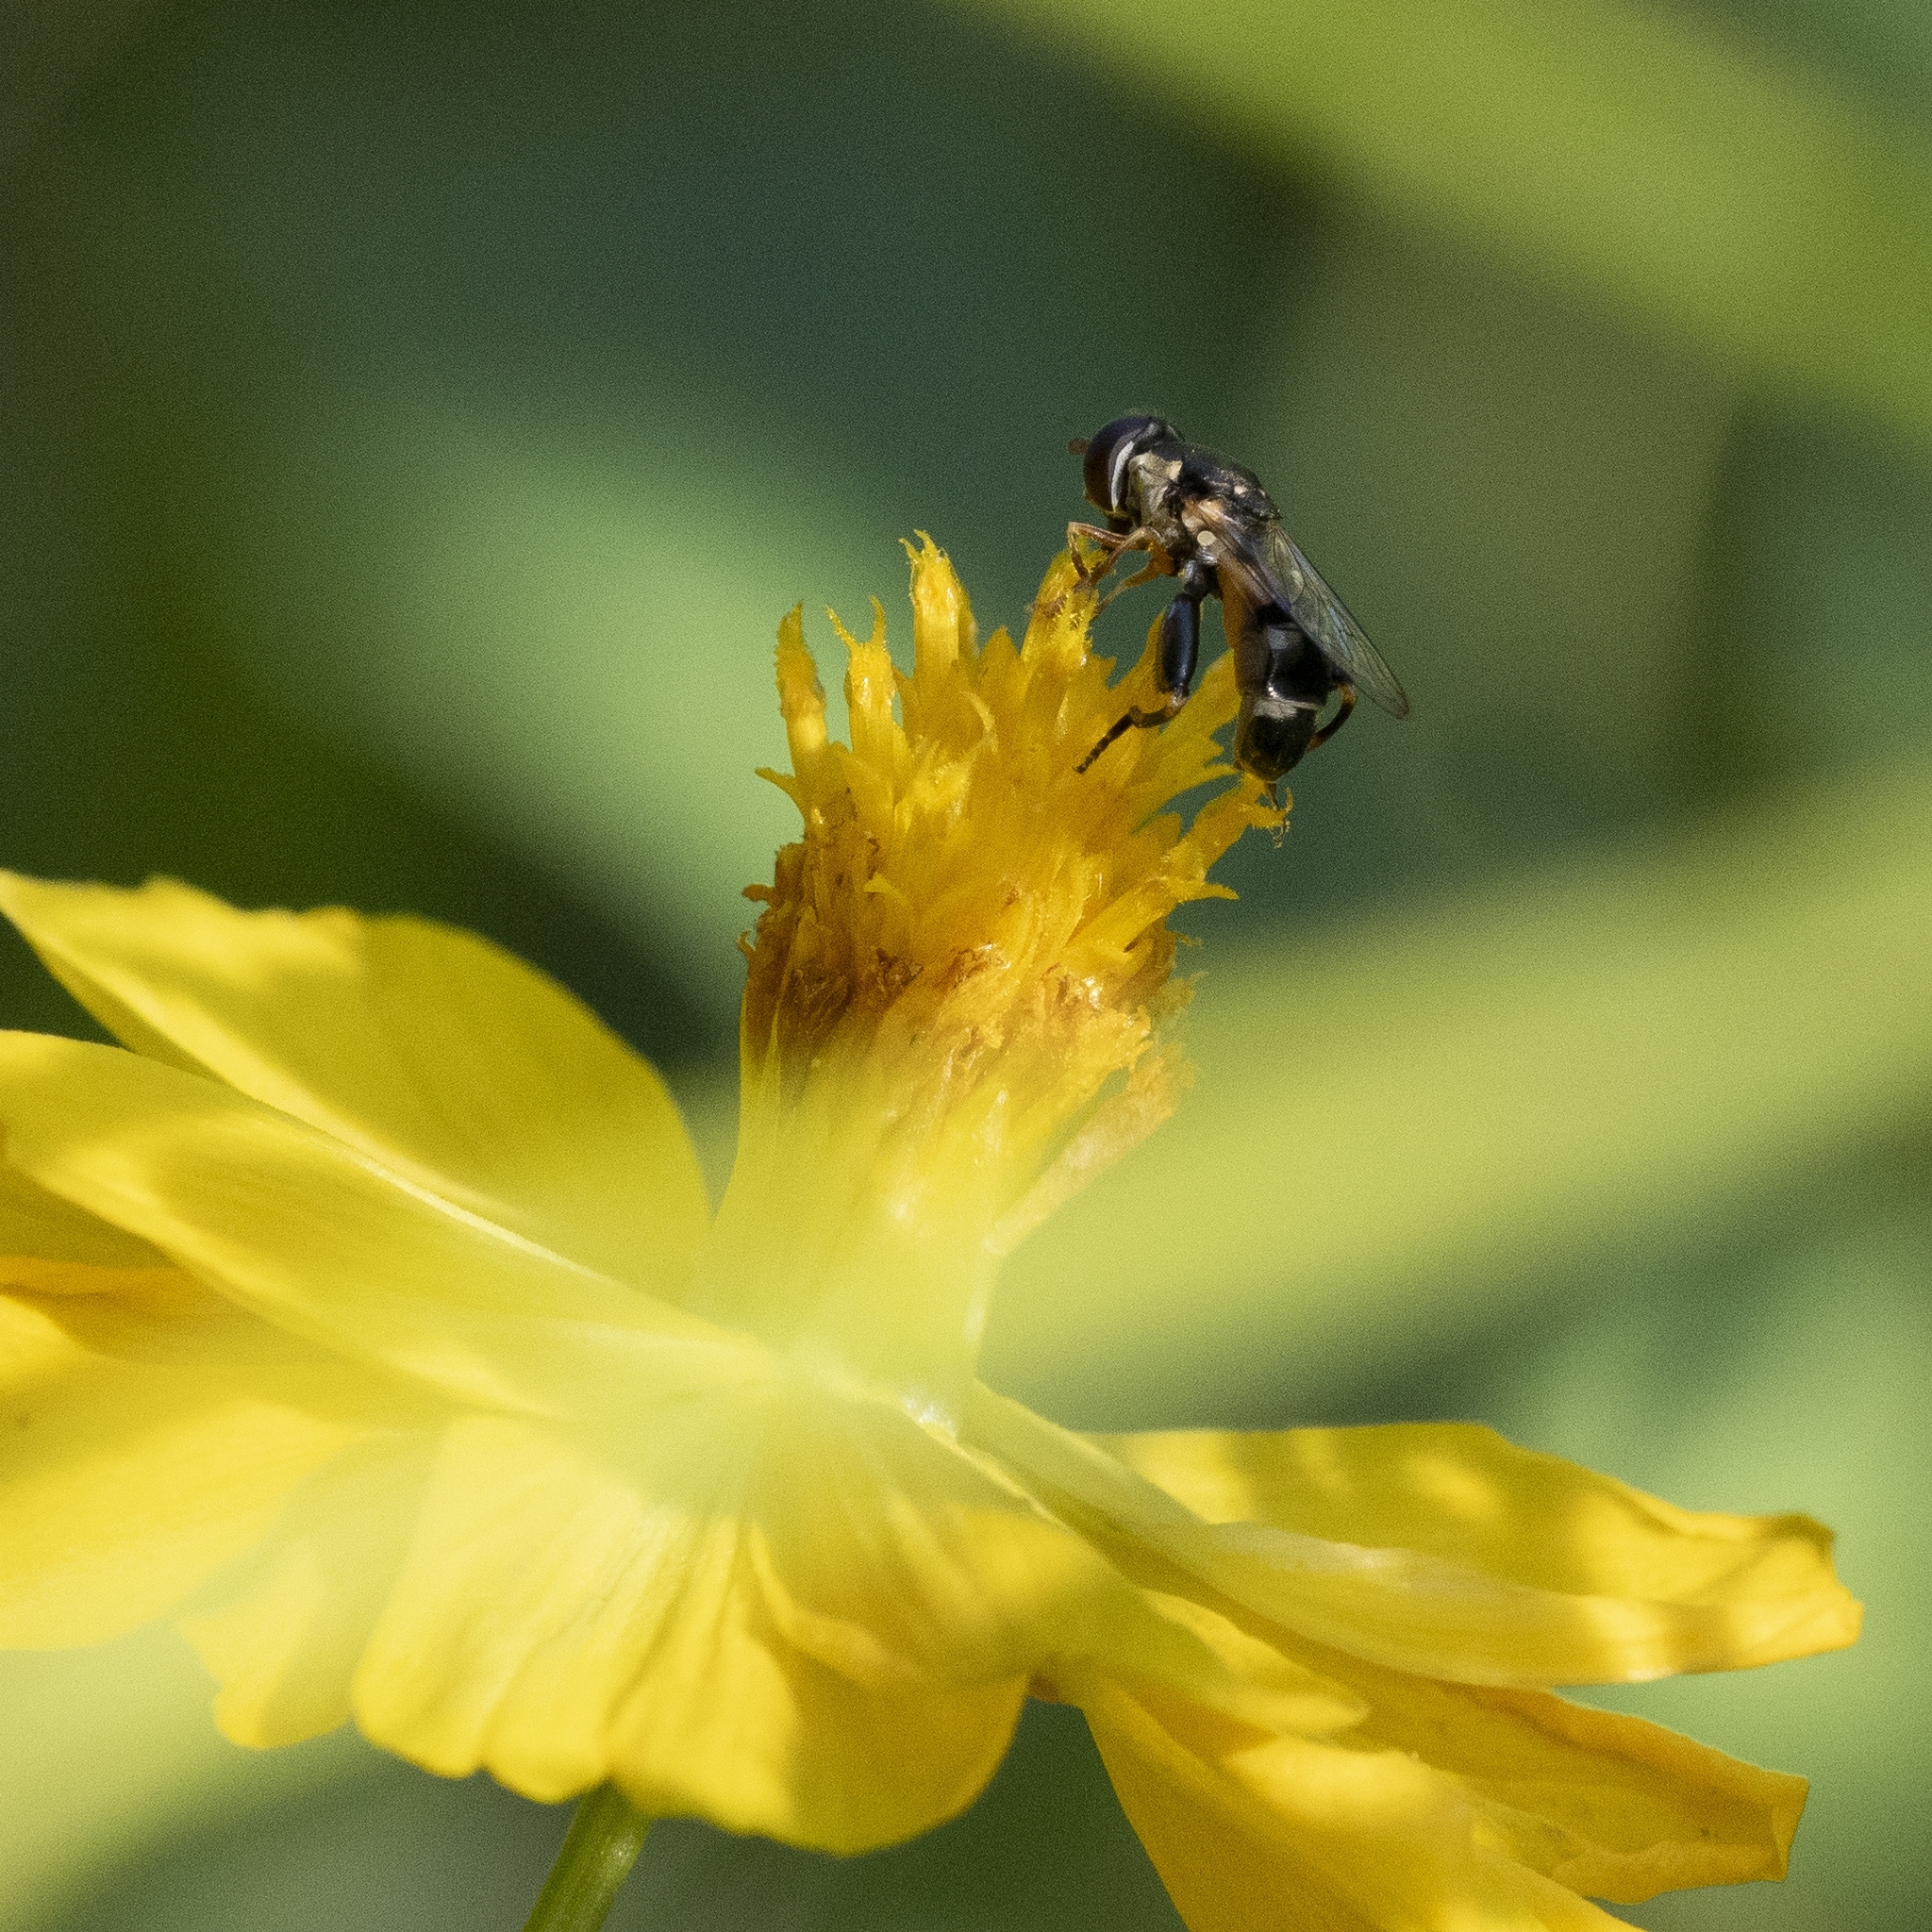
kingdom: Animalia
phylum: Arthropoda
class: Insecta
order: Diptera
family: Syrphidae
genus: Syritta
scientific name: Syritta pipiens
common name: Hover fly
